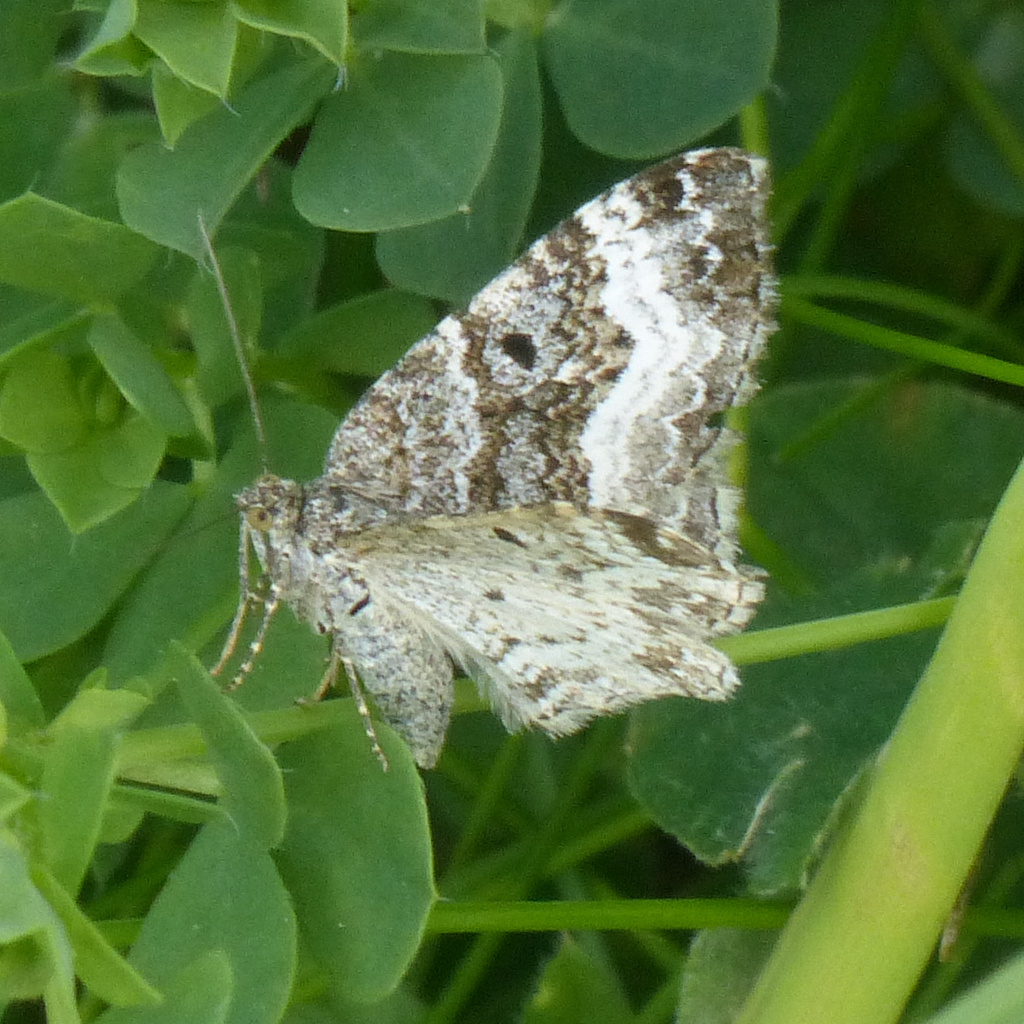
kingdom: Animalia
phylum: Arthropoda
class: Insecta
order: Lepidoptera
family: Geometridae
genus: Epirrhoe
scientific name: Epirrhoe alternata
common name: Common carpet
